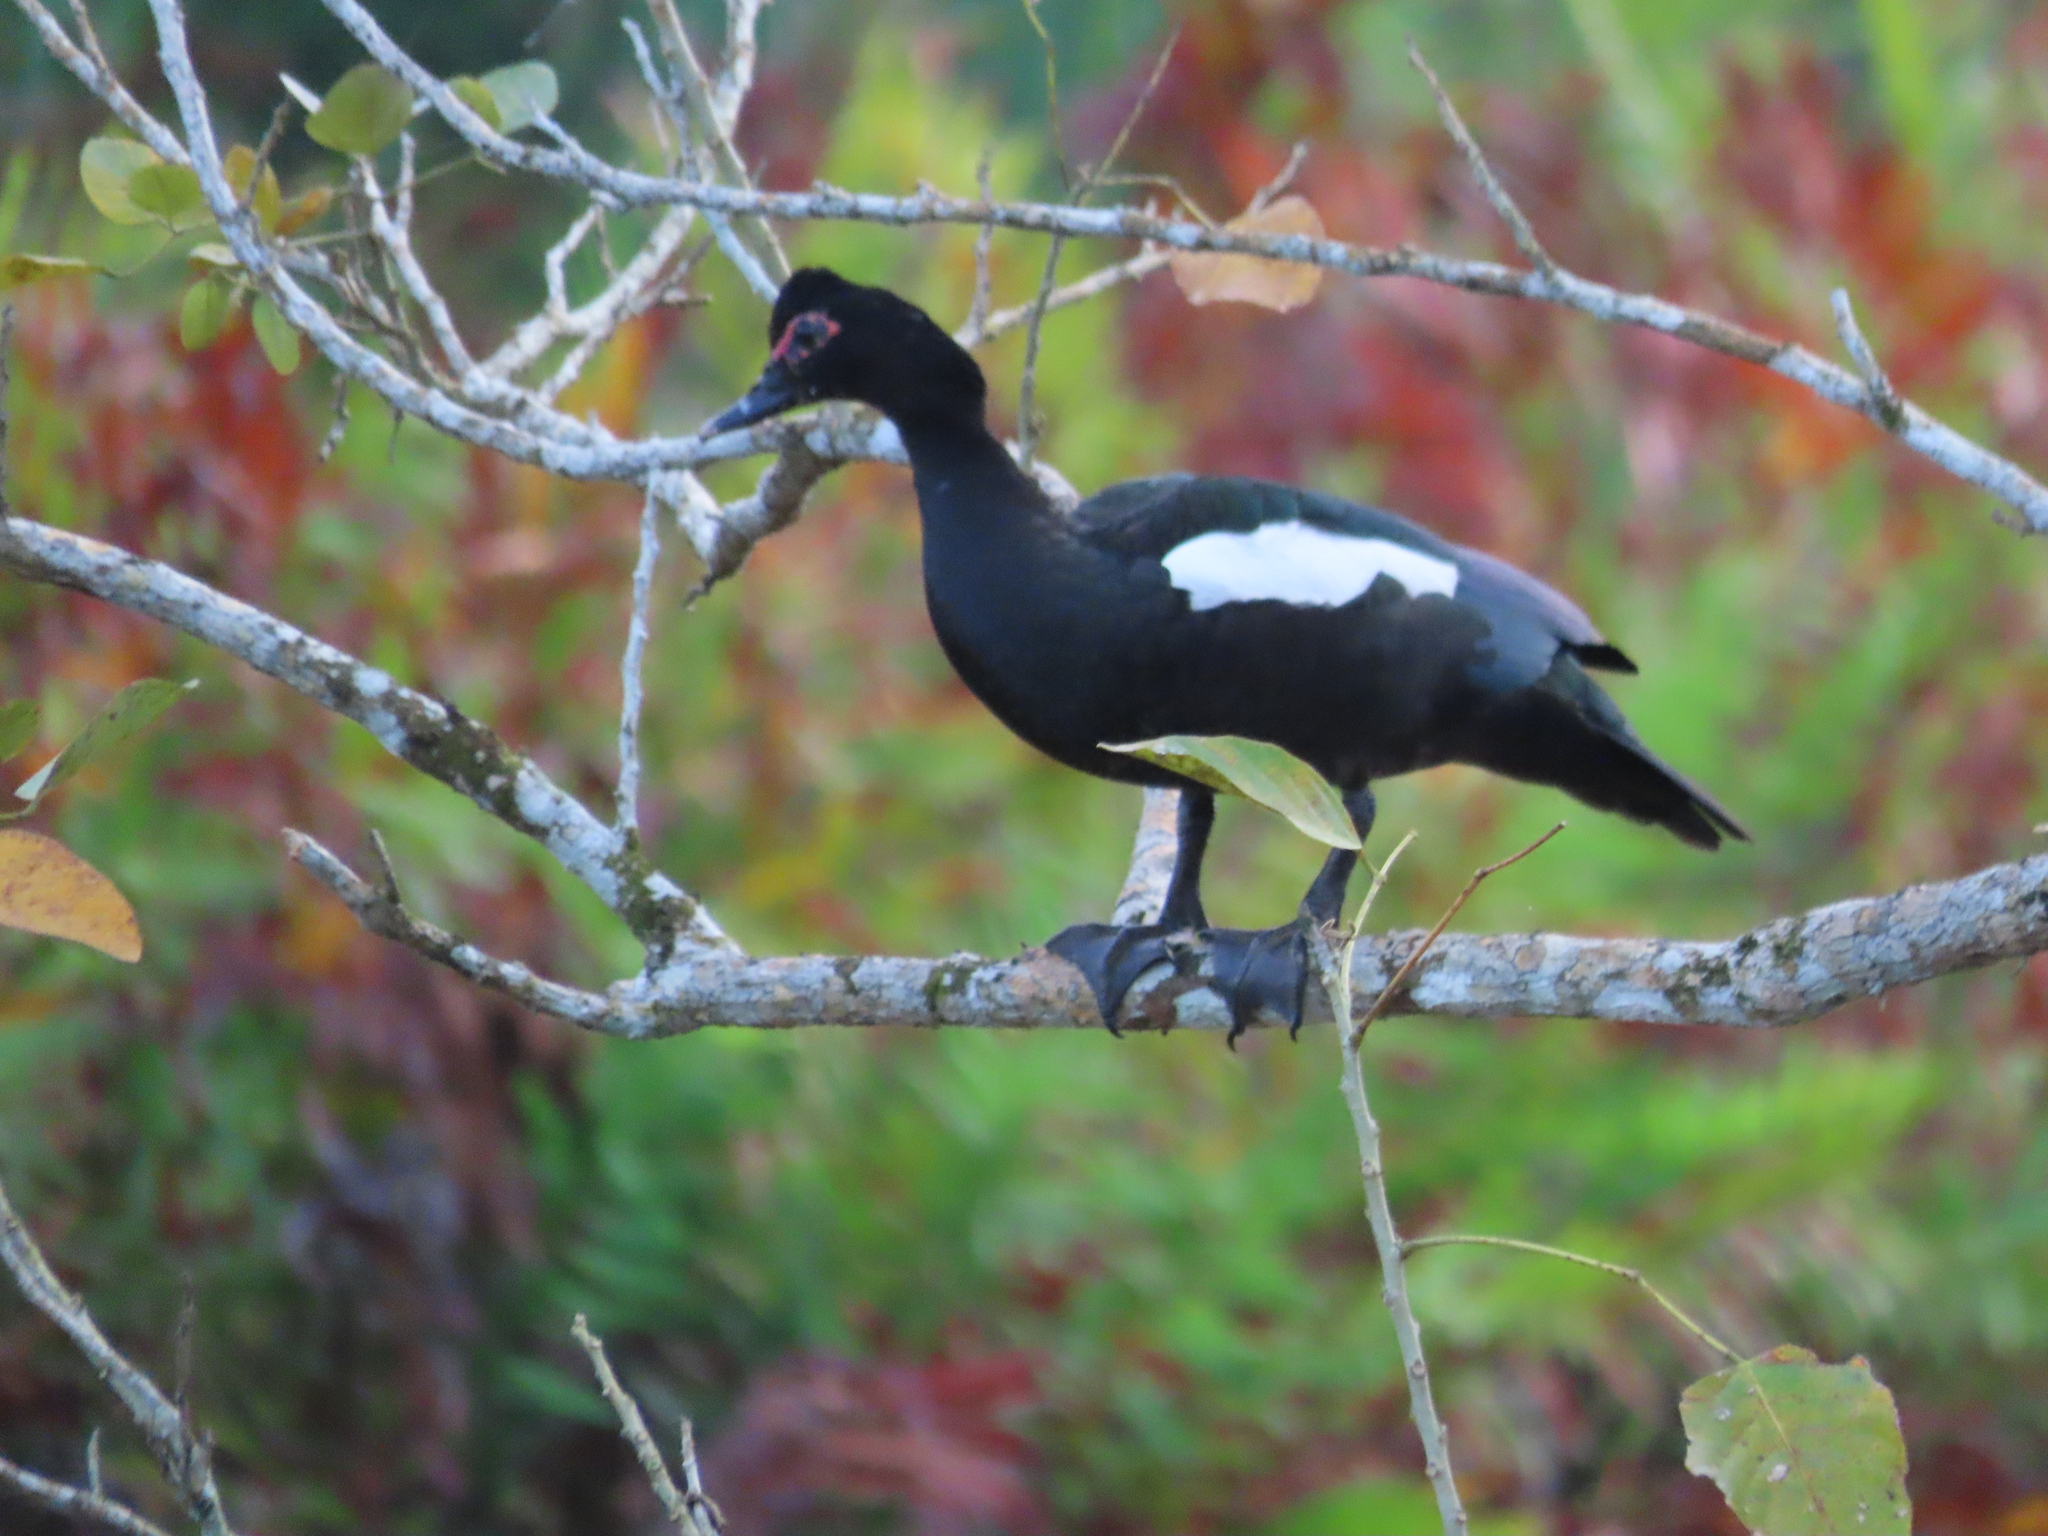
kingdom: Animalia
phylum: Chordata
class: Aves
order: Anseriformes
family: Anatidae
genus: Cairina
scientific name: Cairina moschata
